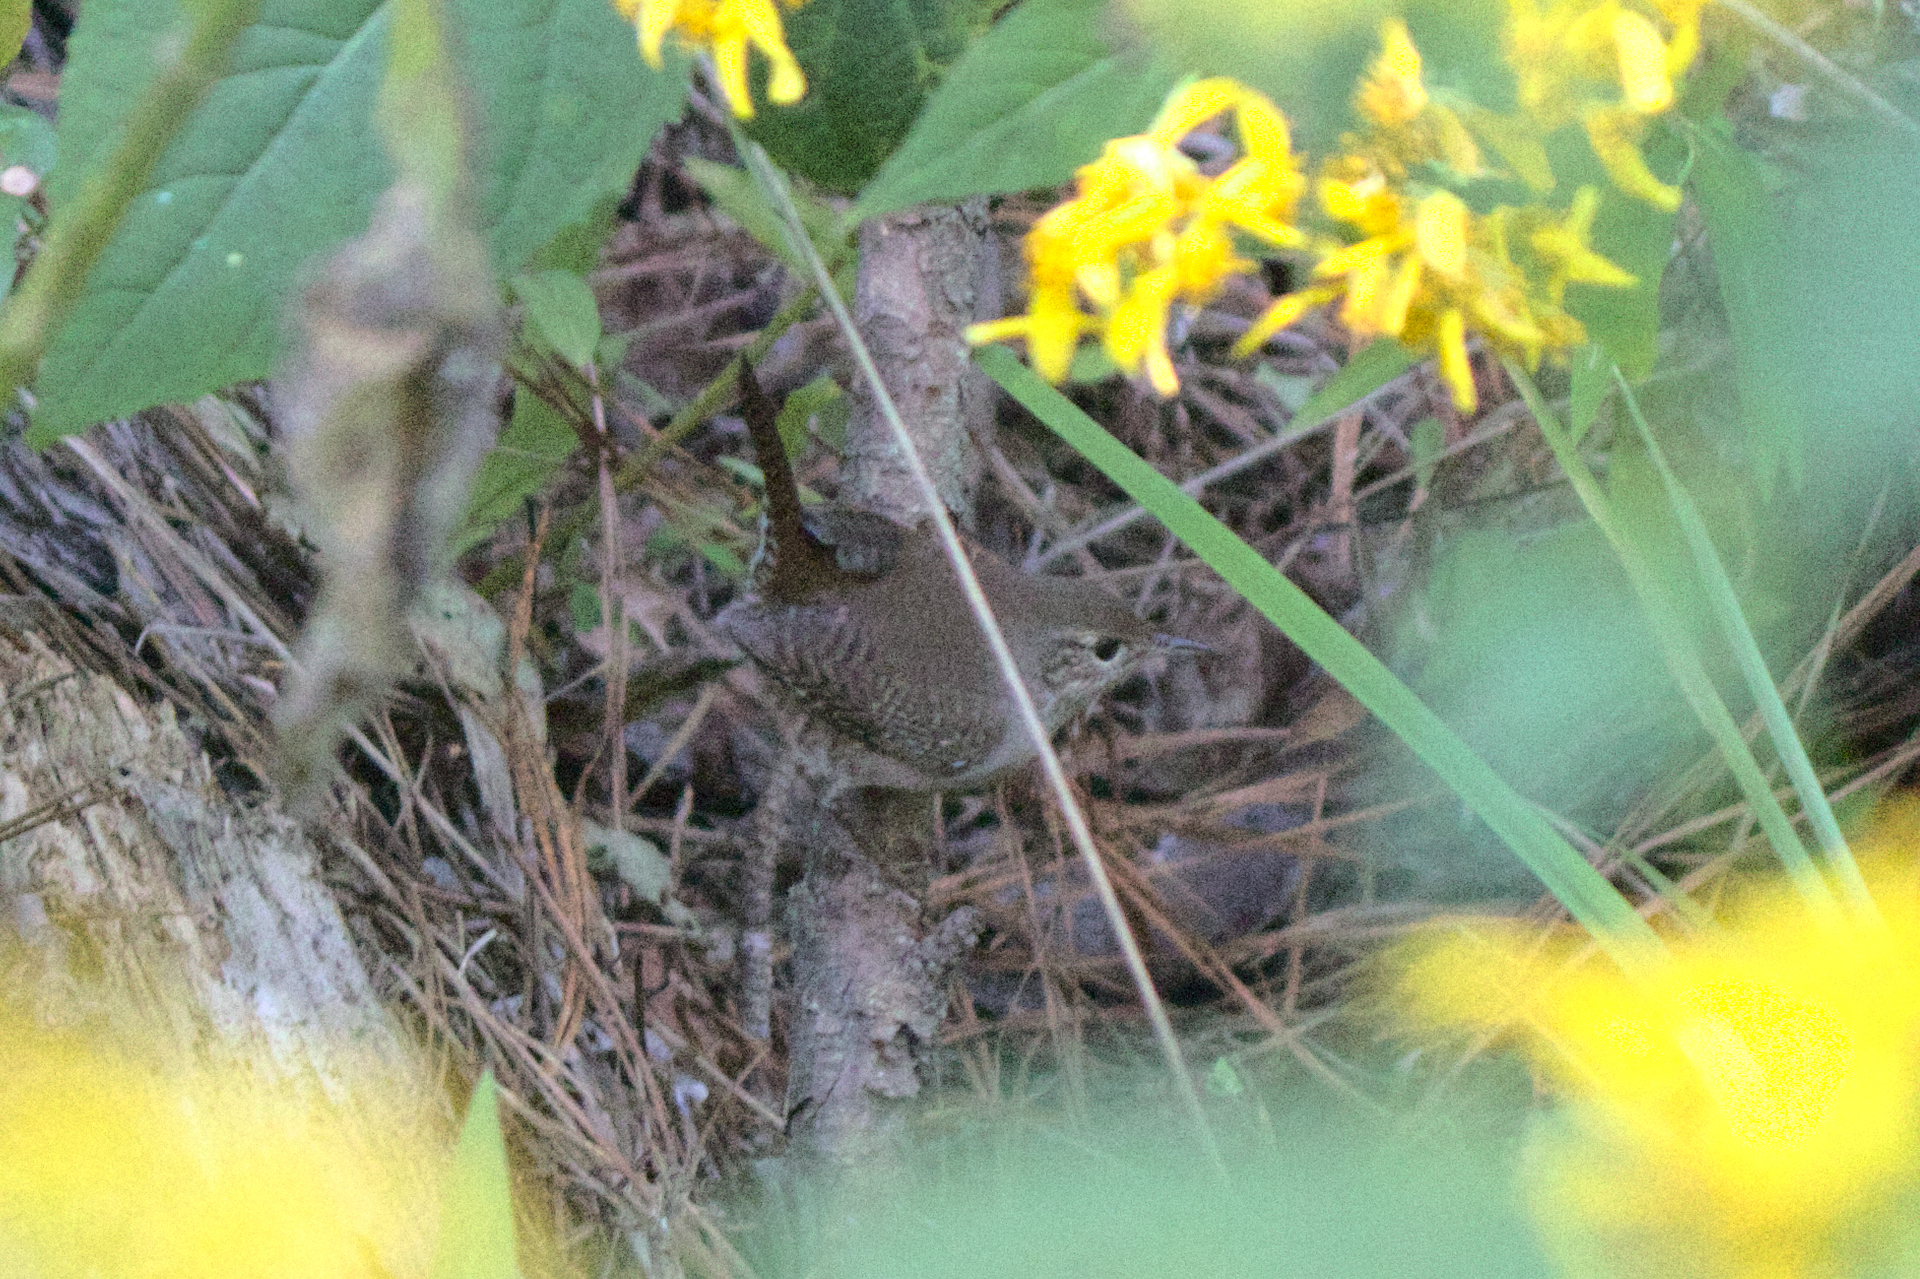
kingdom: Animalia
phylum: Chordata
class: Aves
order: Passeriformes
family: Troglodytidae
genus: Troglodytes
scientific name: Troglodytes aedon
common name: House wren
